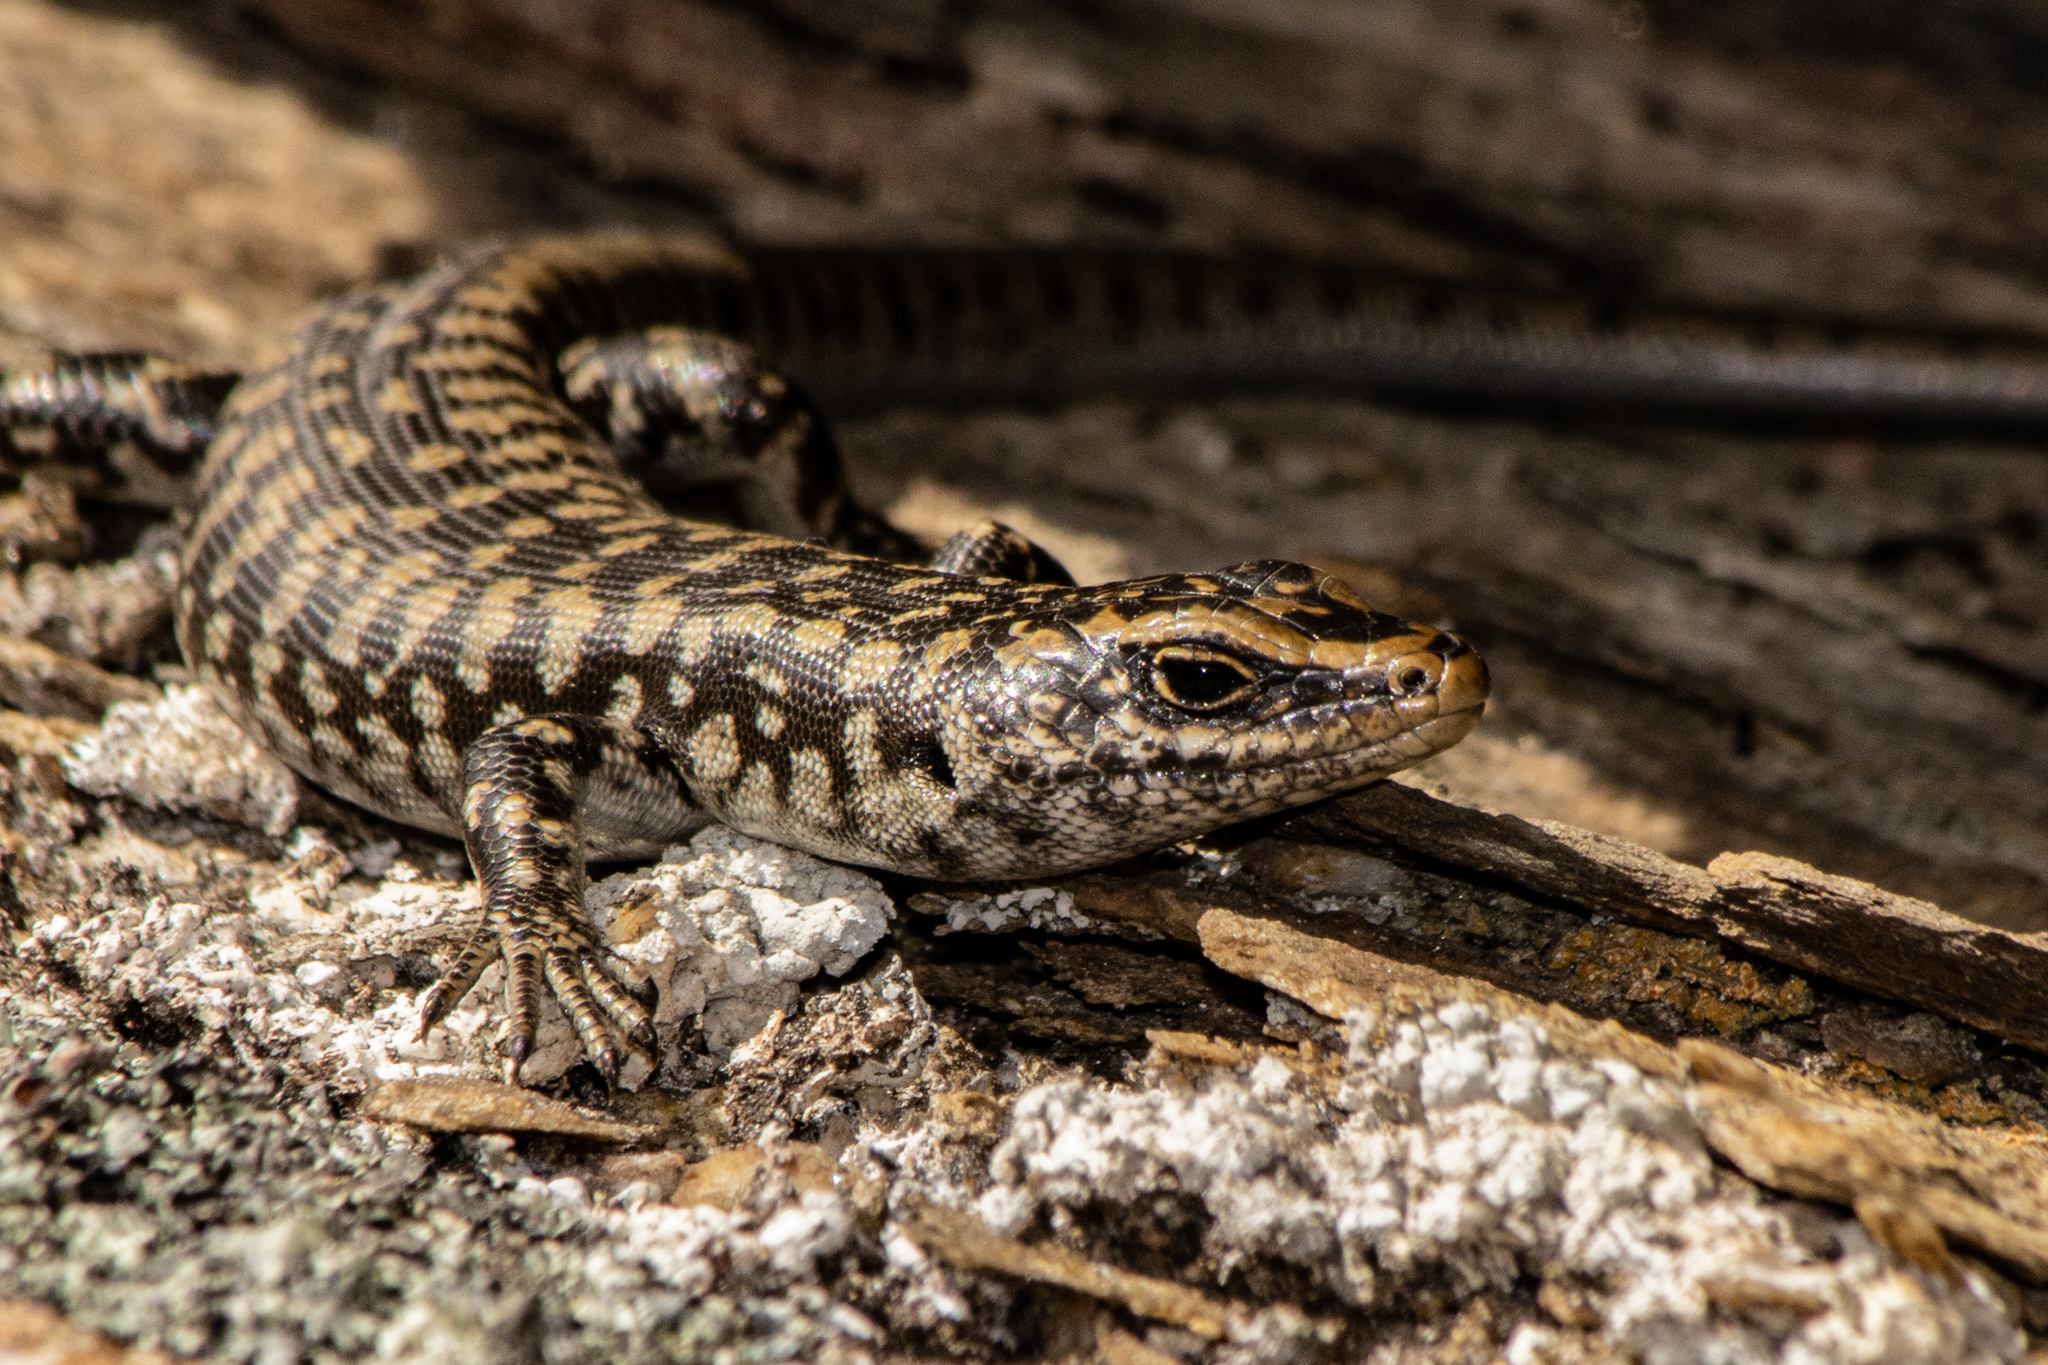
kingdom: Animalia
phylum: Chordata
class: Squamata
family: Scincidae
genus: Oligosoma
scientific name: Oligosoma otagense
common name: Otago skink
